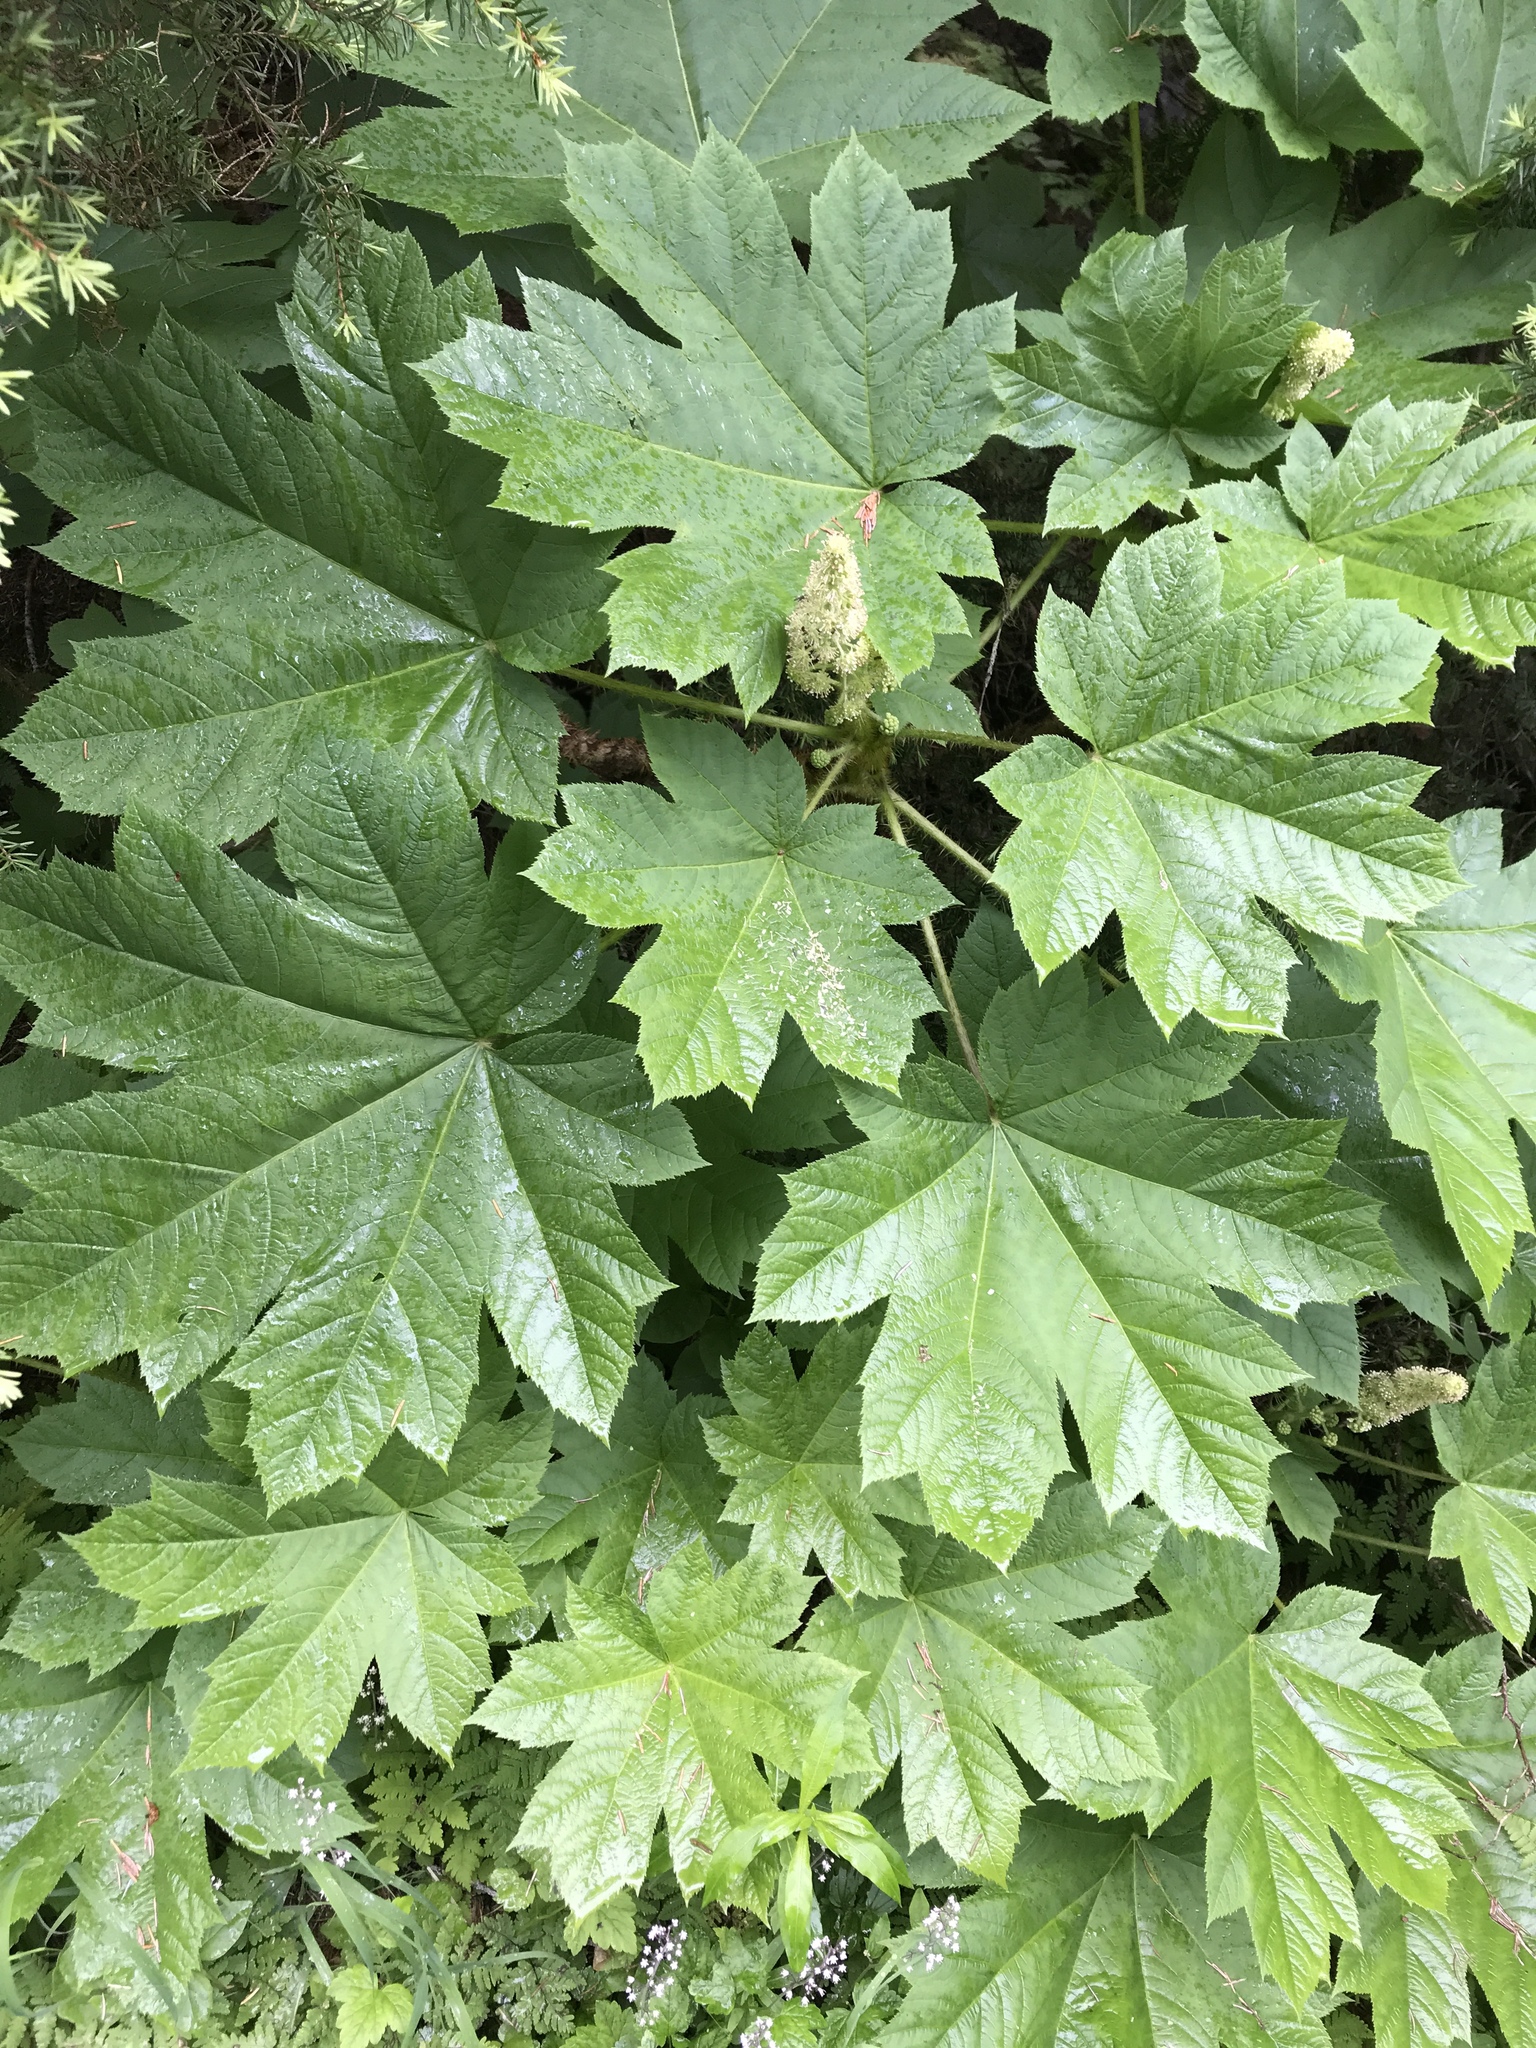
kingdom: Plantae
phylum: Tracheophyta
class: Magnoliopsida
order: Apiales
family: Araliaceae
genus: Oplopanax
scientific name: Oplopanax horridus
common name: Devil's walking-stick
